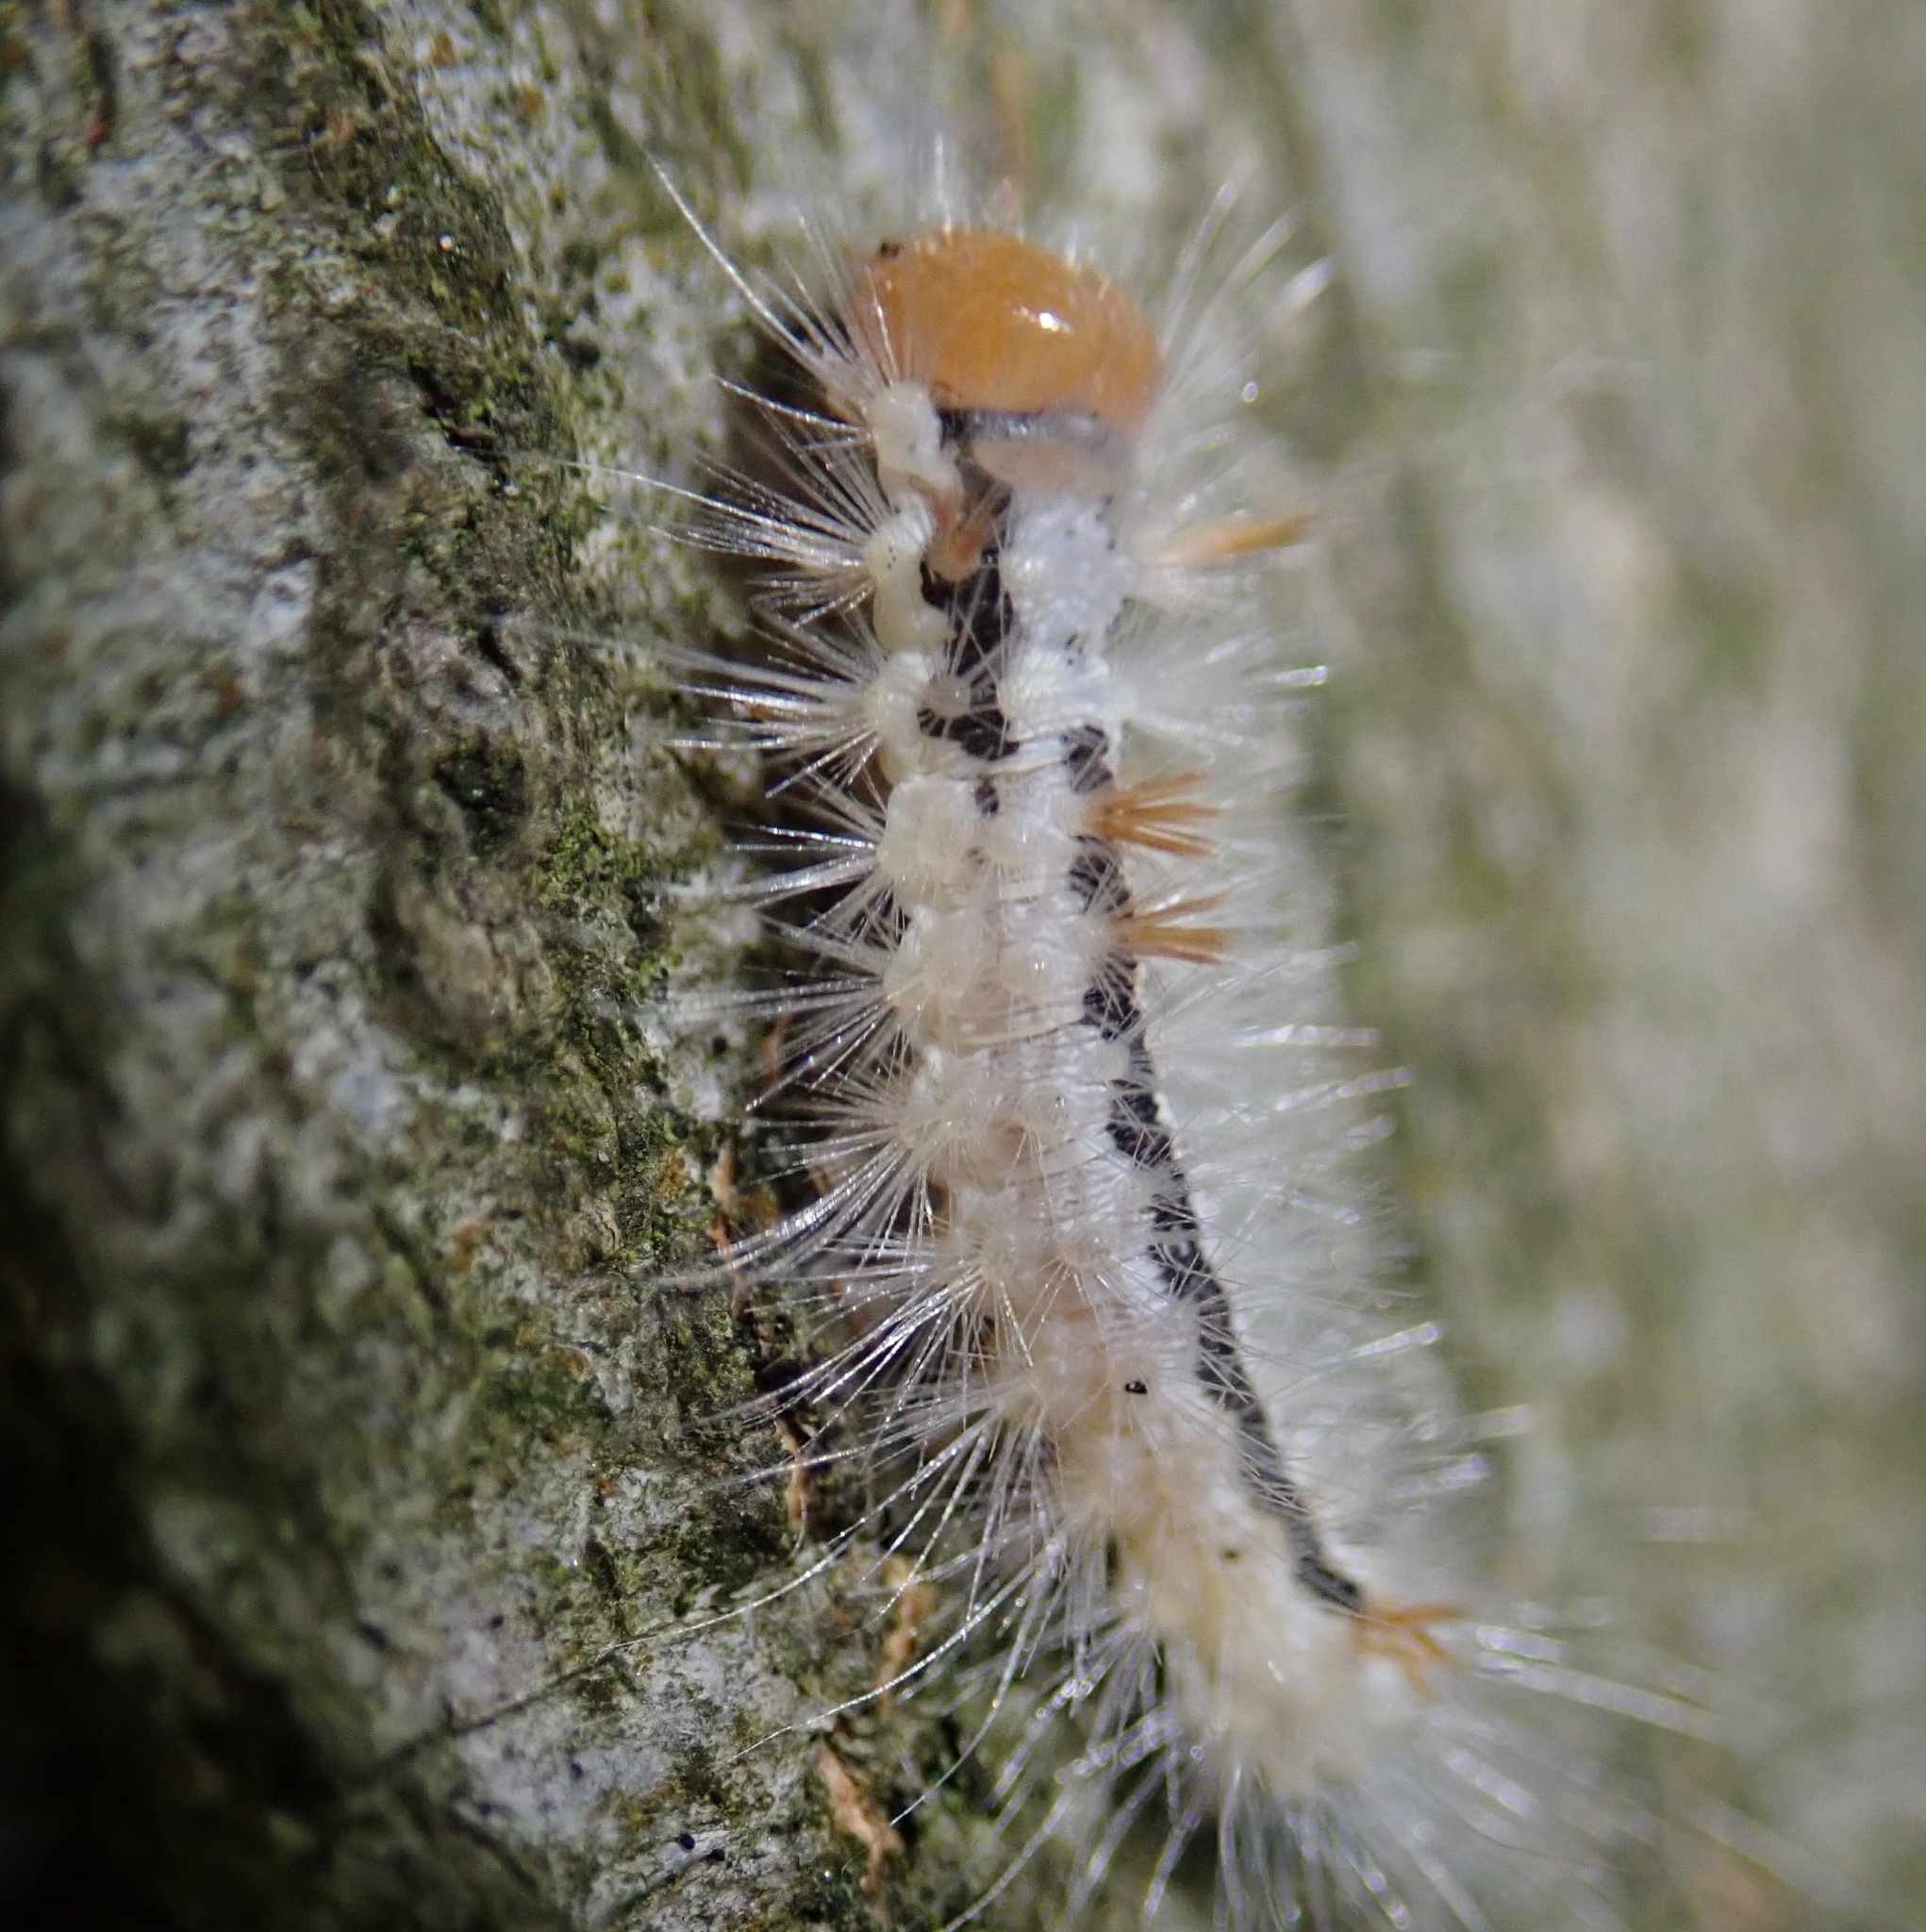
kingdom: Animalia
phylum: Arthropoda
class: Insecta
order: Lepidoptera
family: Noctuidae
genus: Colocasia
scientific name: Colocasia coryli
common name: Nut-tree tussock
